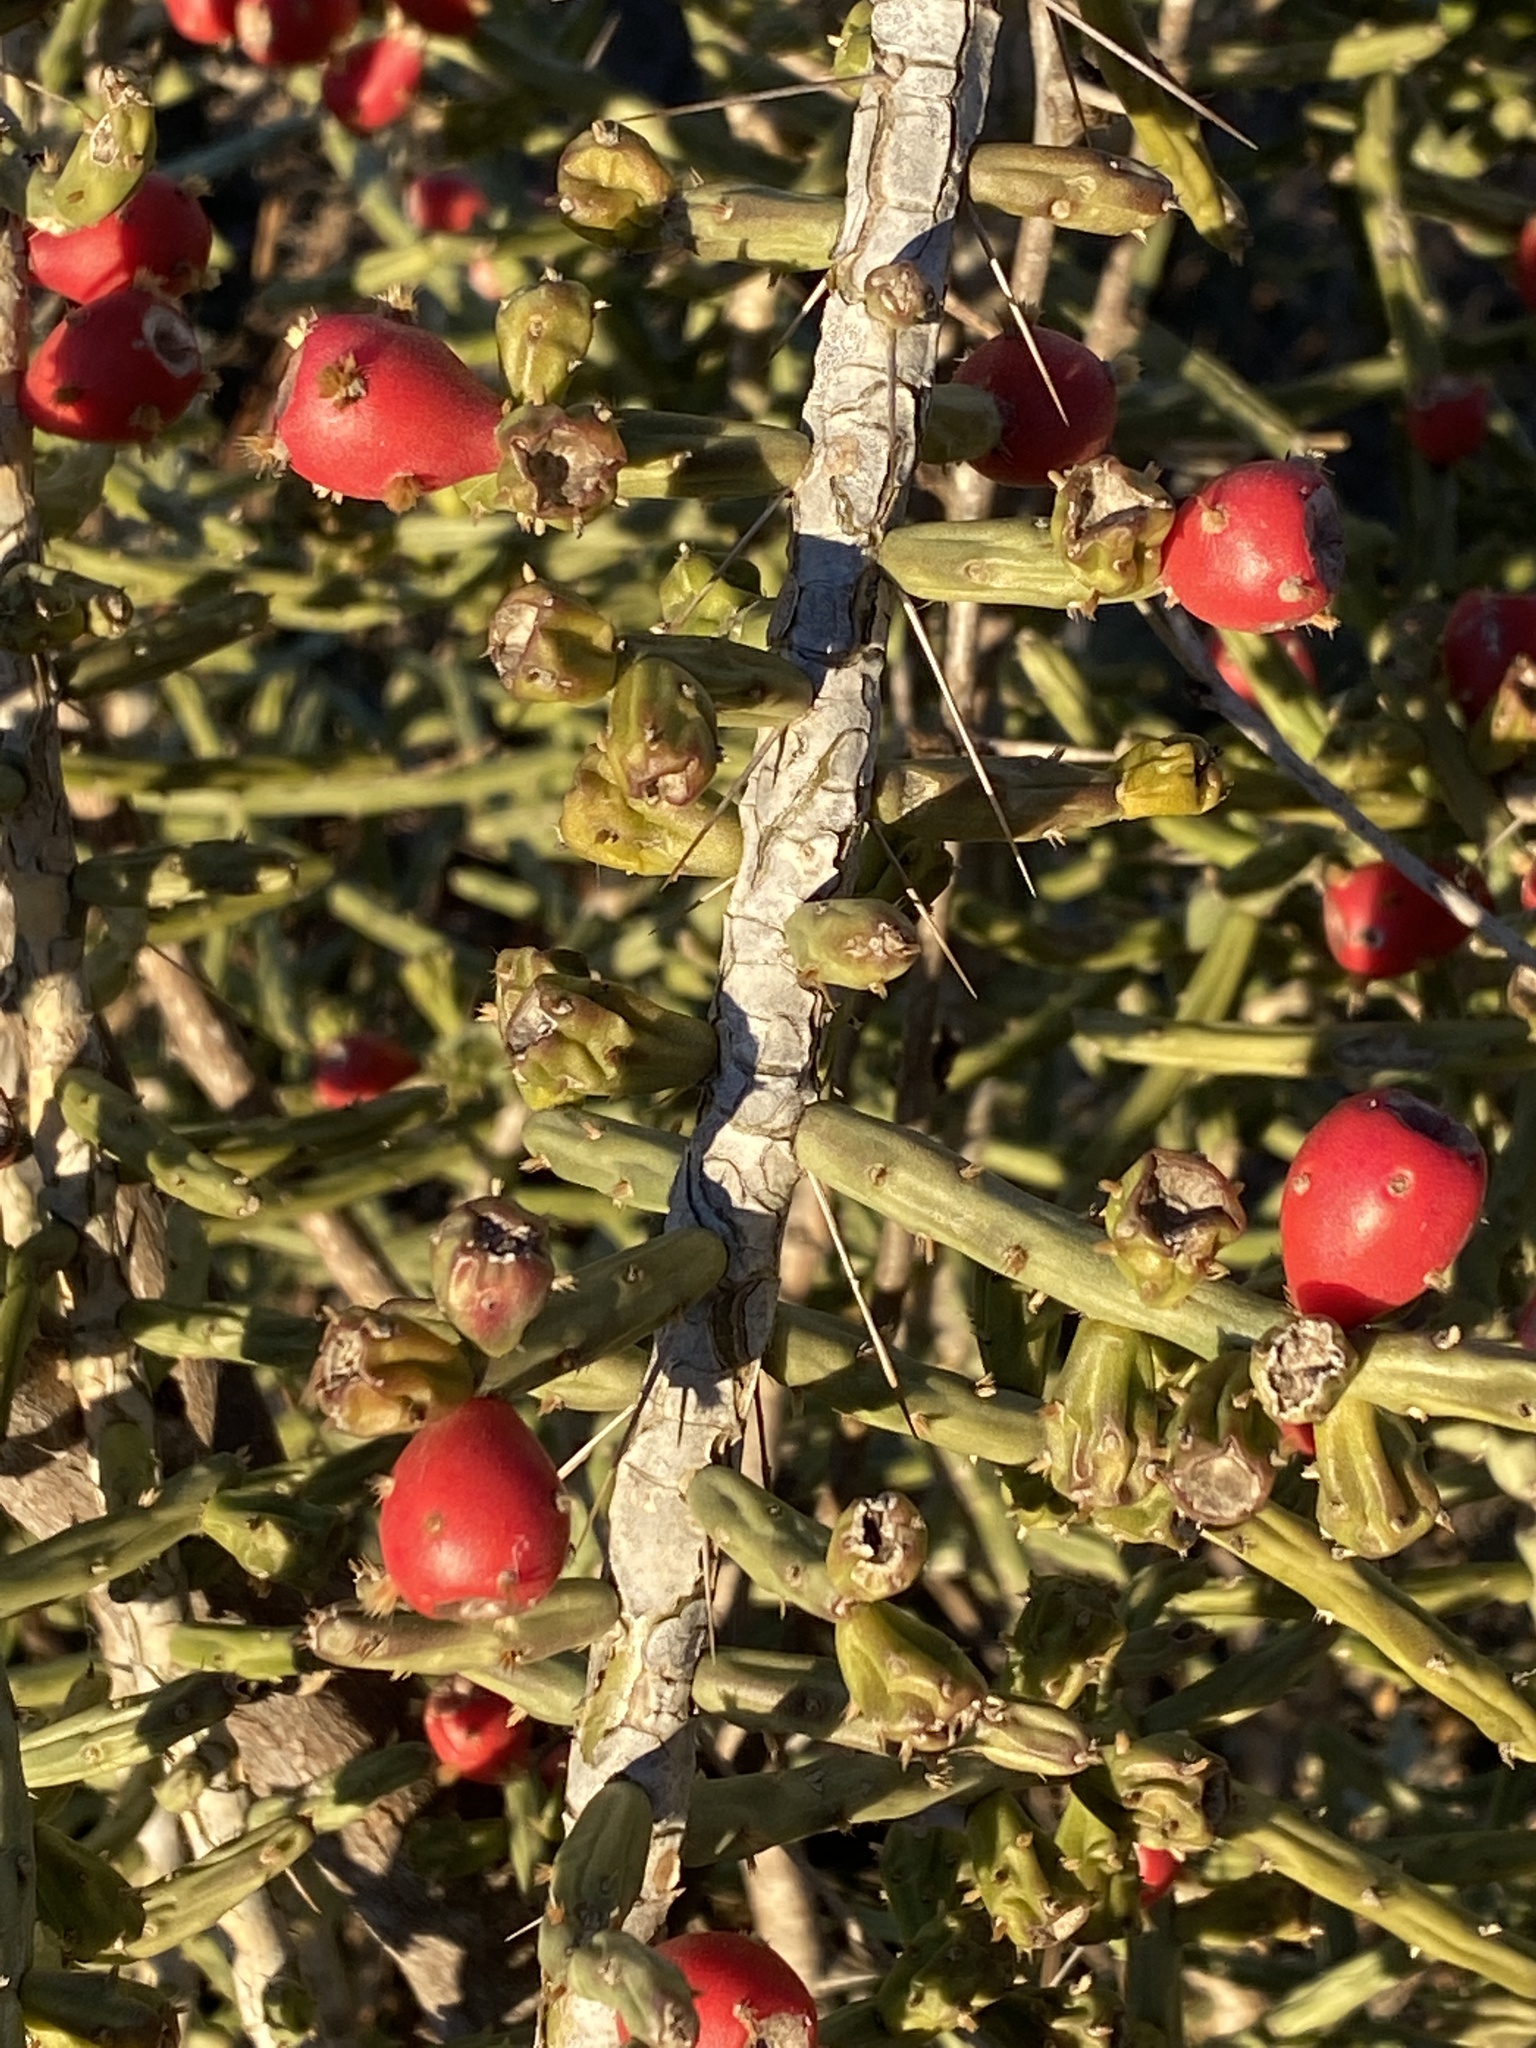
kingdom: Plantae
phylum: Tracheophyta
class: Magnoliopsida
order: Caryophyllales
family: Cactaceae
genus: Cylindropuntia
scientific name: Cylindropuntia leptocaulis
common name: Christmas cactus
